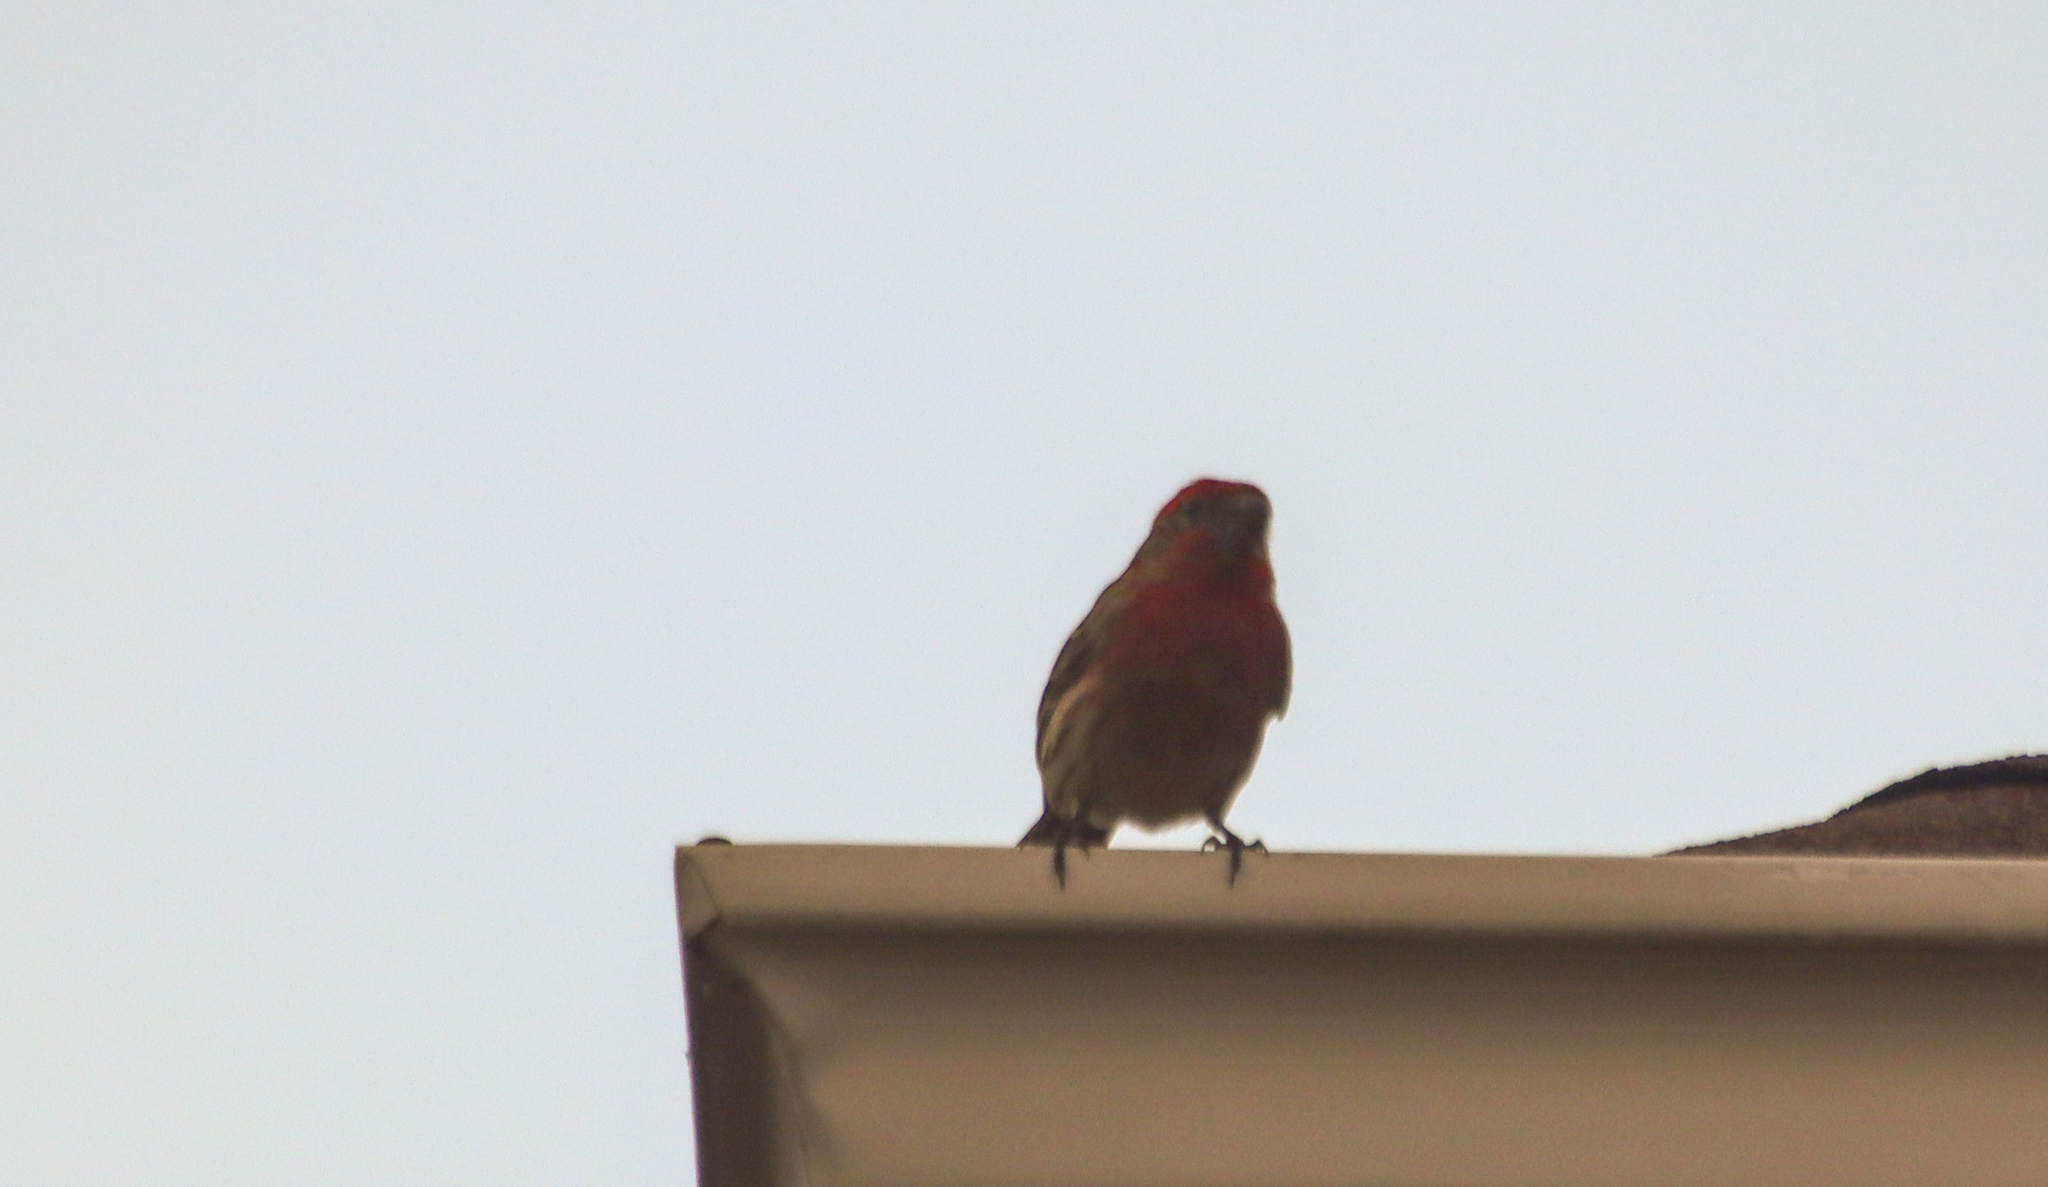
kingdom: Animalia
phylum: Chordata
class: Aves
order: Passeriformes
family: Fringillidae
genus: Haemorhous
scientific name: Haemorhous mexicanus
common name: House finch
